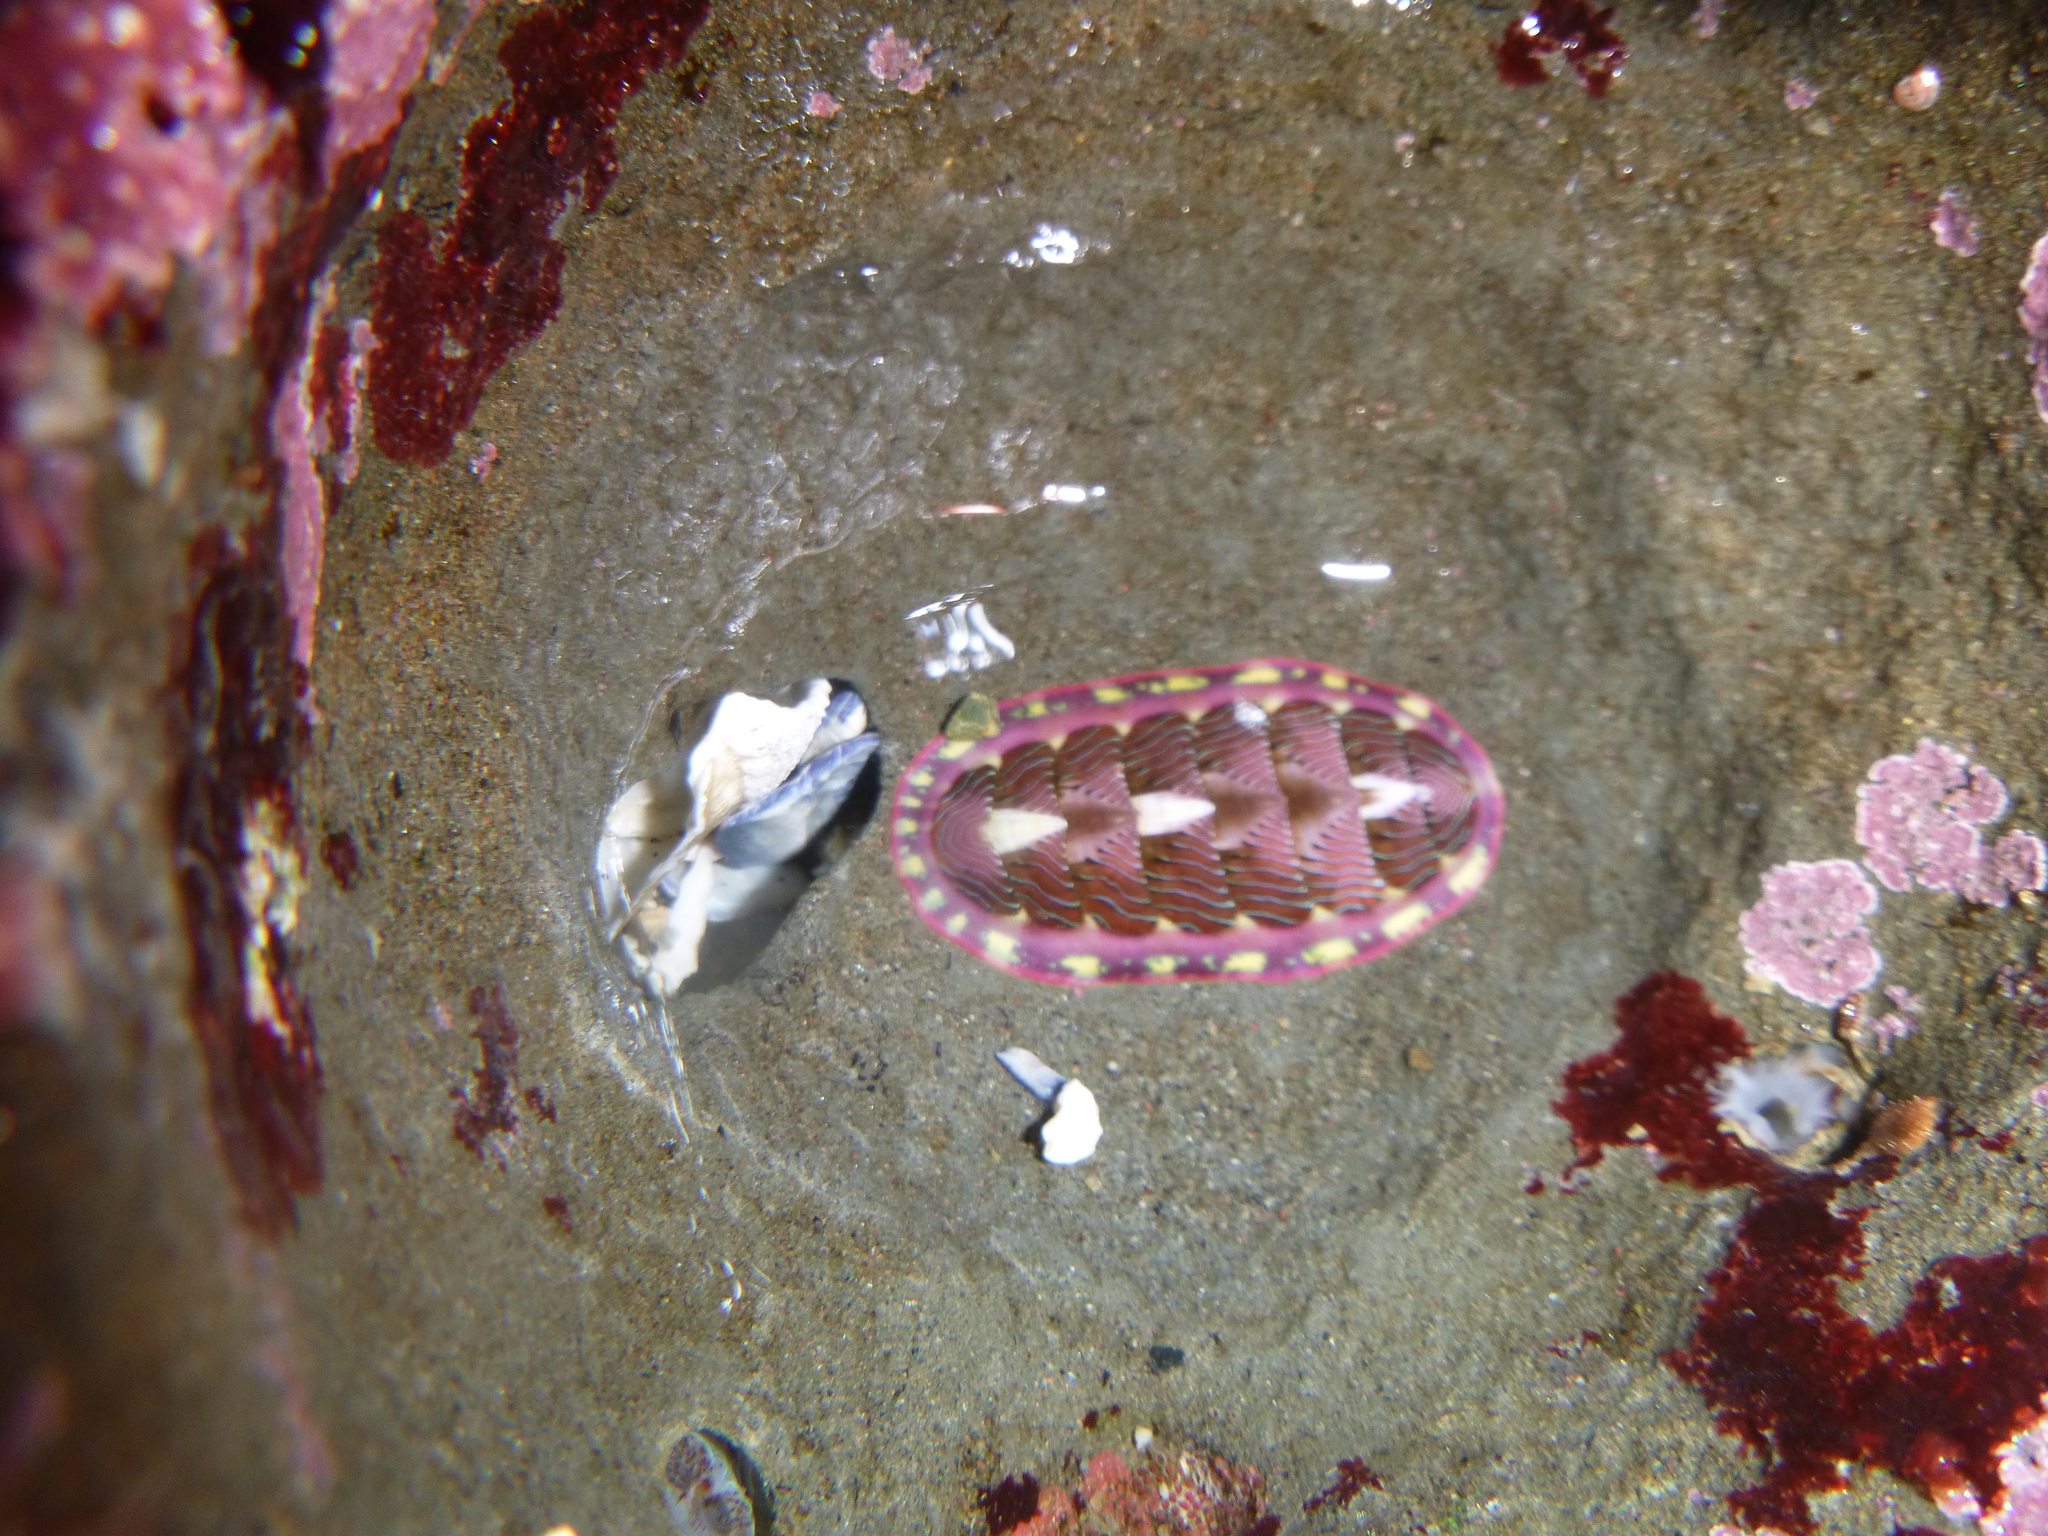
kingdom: Animalia
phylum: Mollusca
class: Polyplacophora
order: Chitonida
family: Tonicellidae
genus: Tonicella
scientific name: Tonicella lineata
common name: Lined chiton
